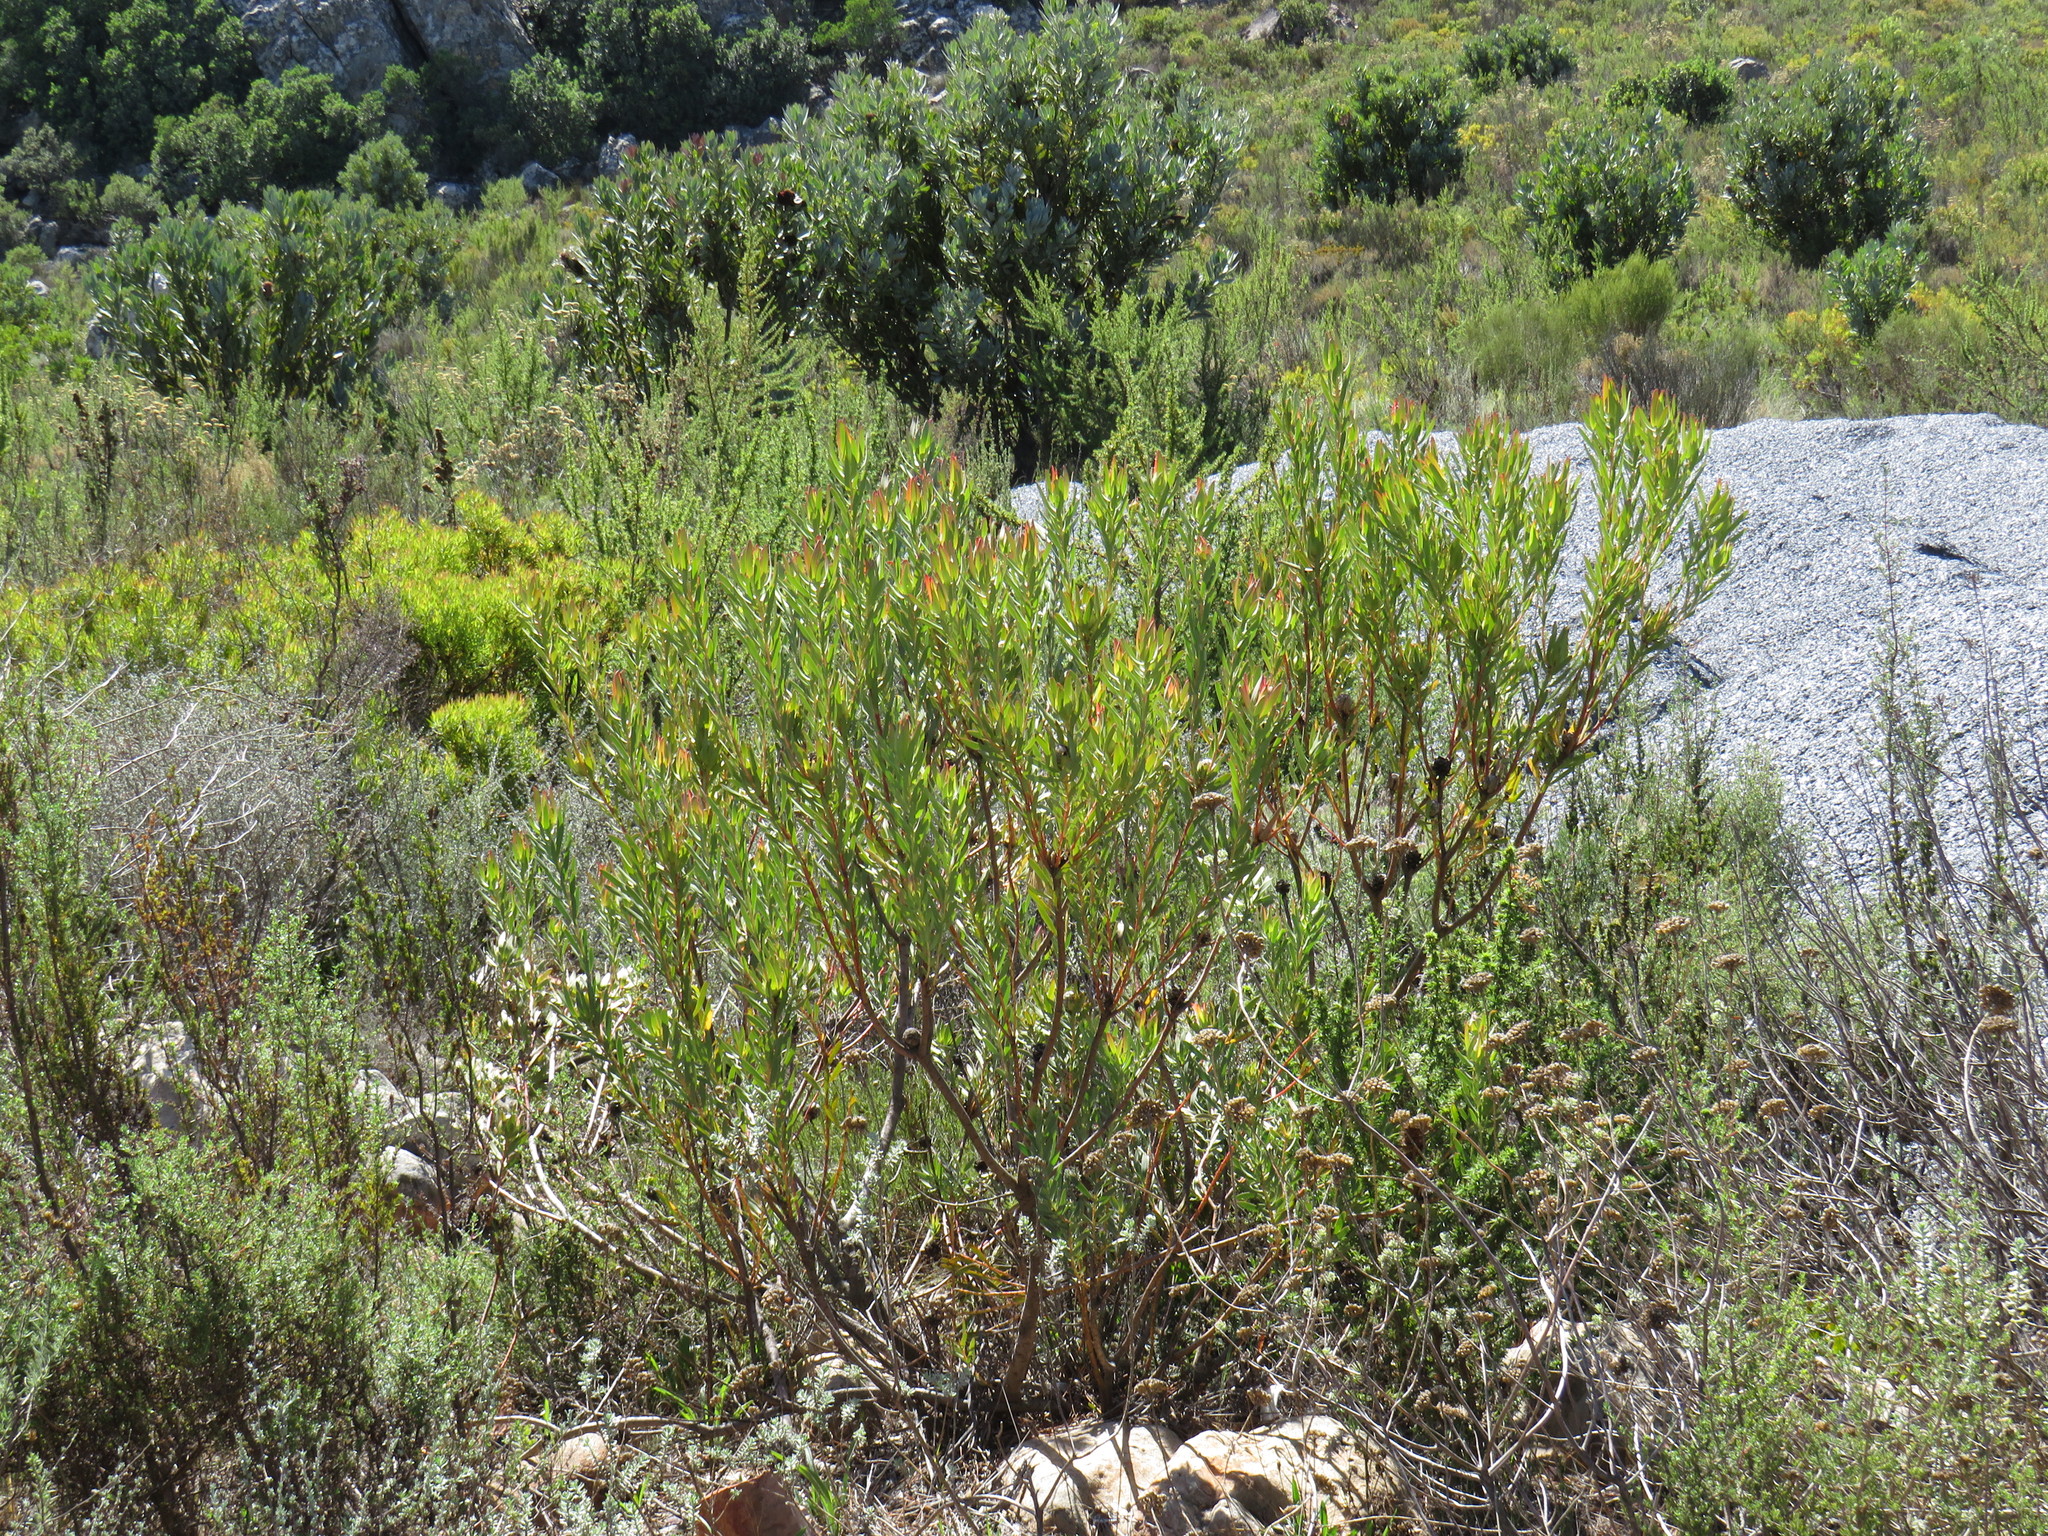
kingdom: Plantae
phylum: Tracheophyta
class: Magnoliopsida
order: Proteales
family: Proteaceae
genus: Leucadendron
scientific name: Leucadendron salignum
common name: Common sunshine conebush
